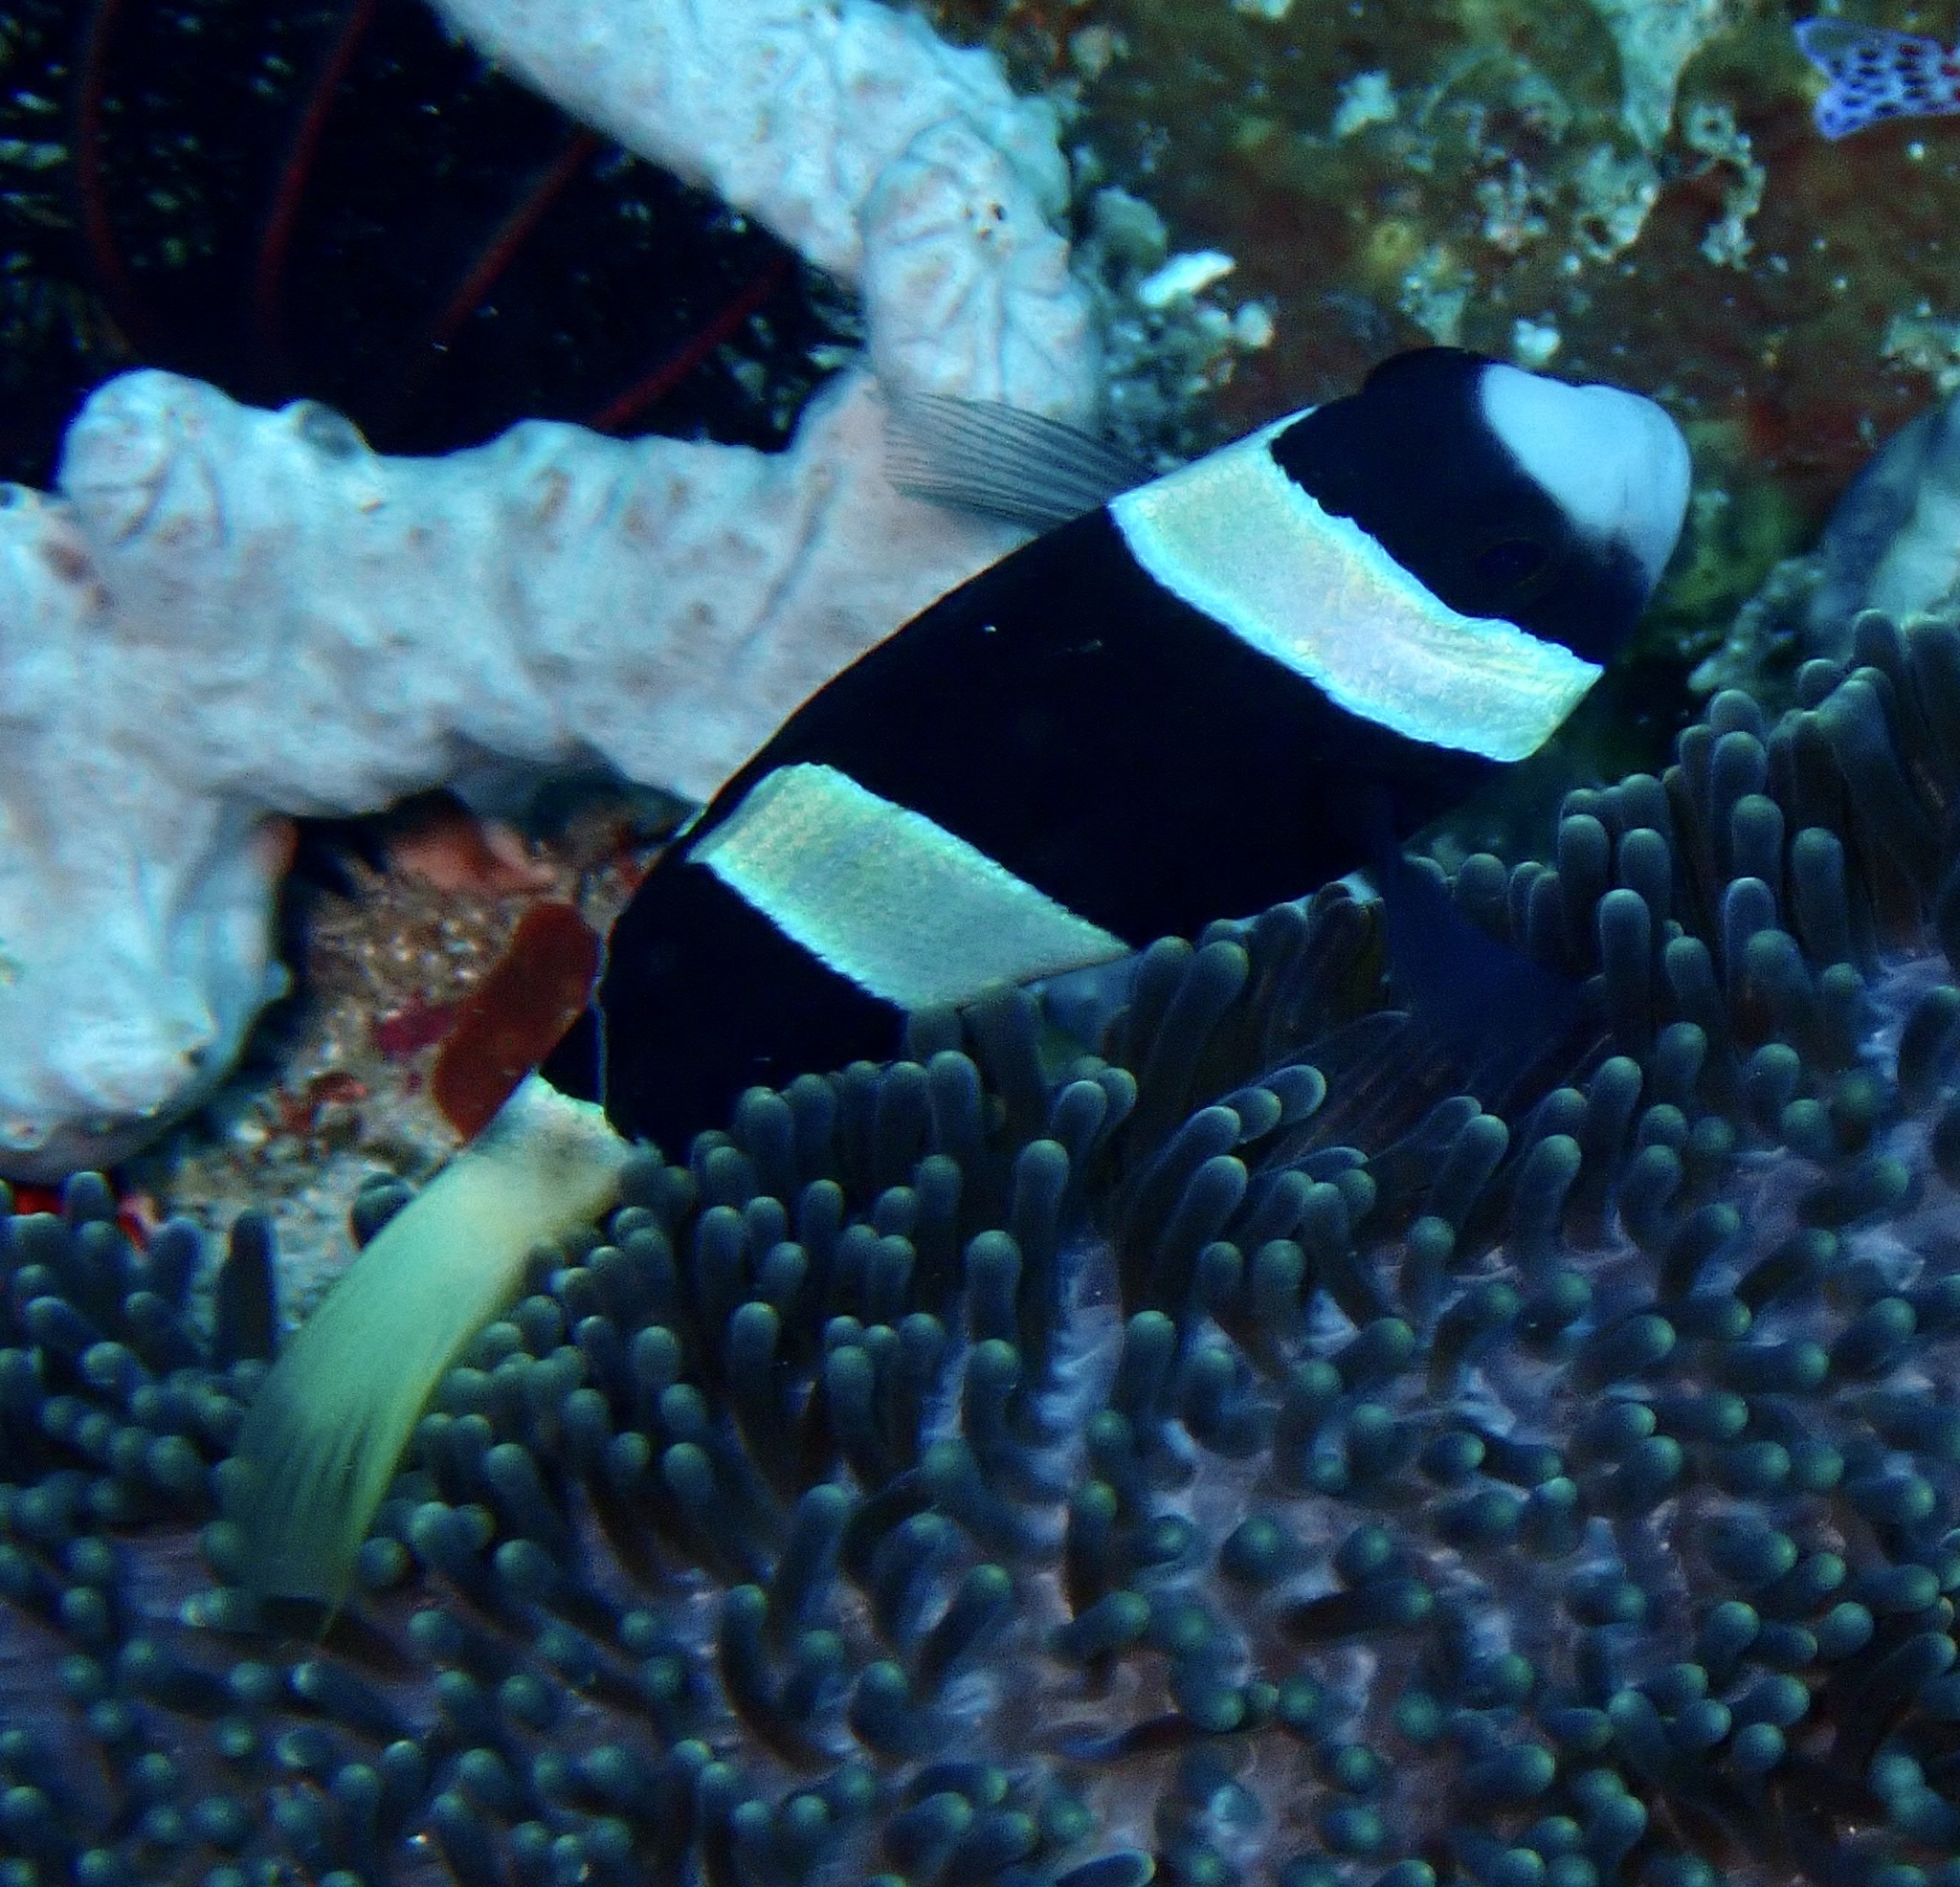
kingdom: Animalia
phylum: Chordata
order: Perciformes
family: Pomacentridae
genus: Amphiprion
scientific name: Amphiprion clarkii
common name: Clark's anemonefish
